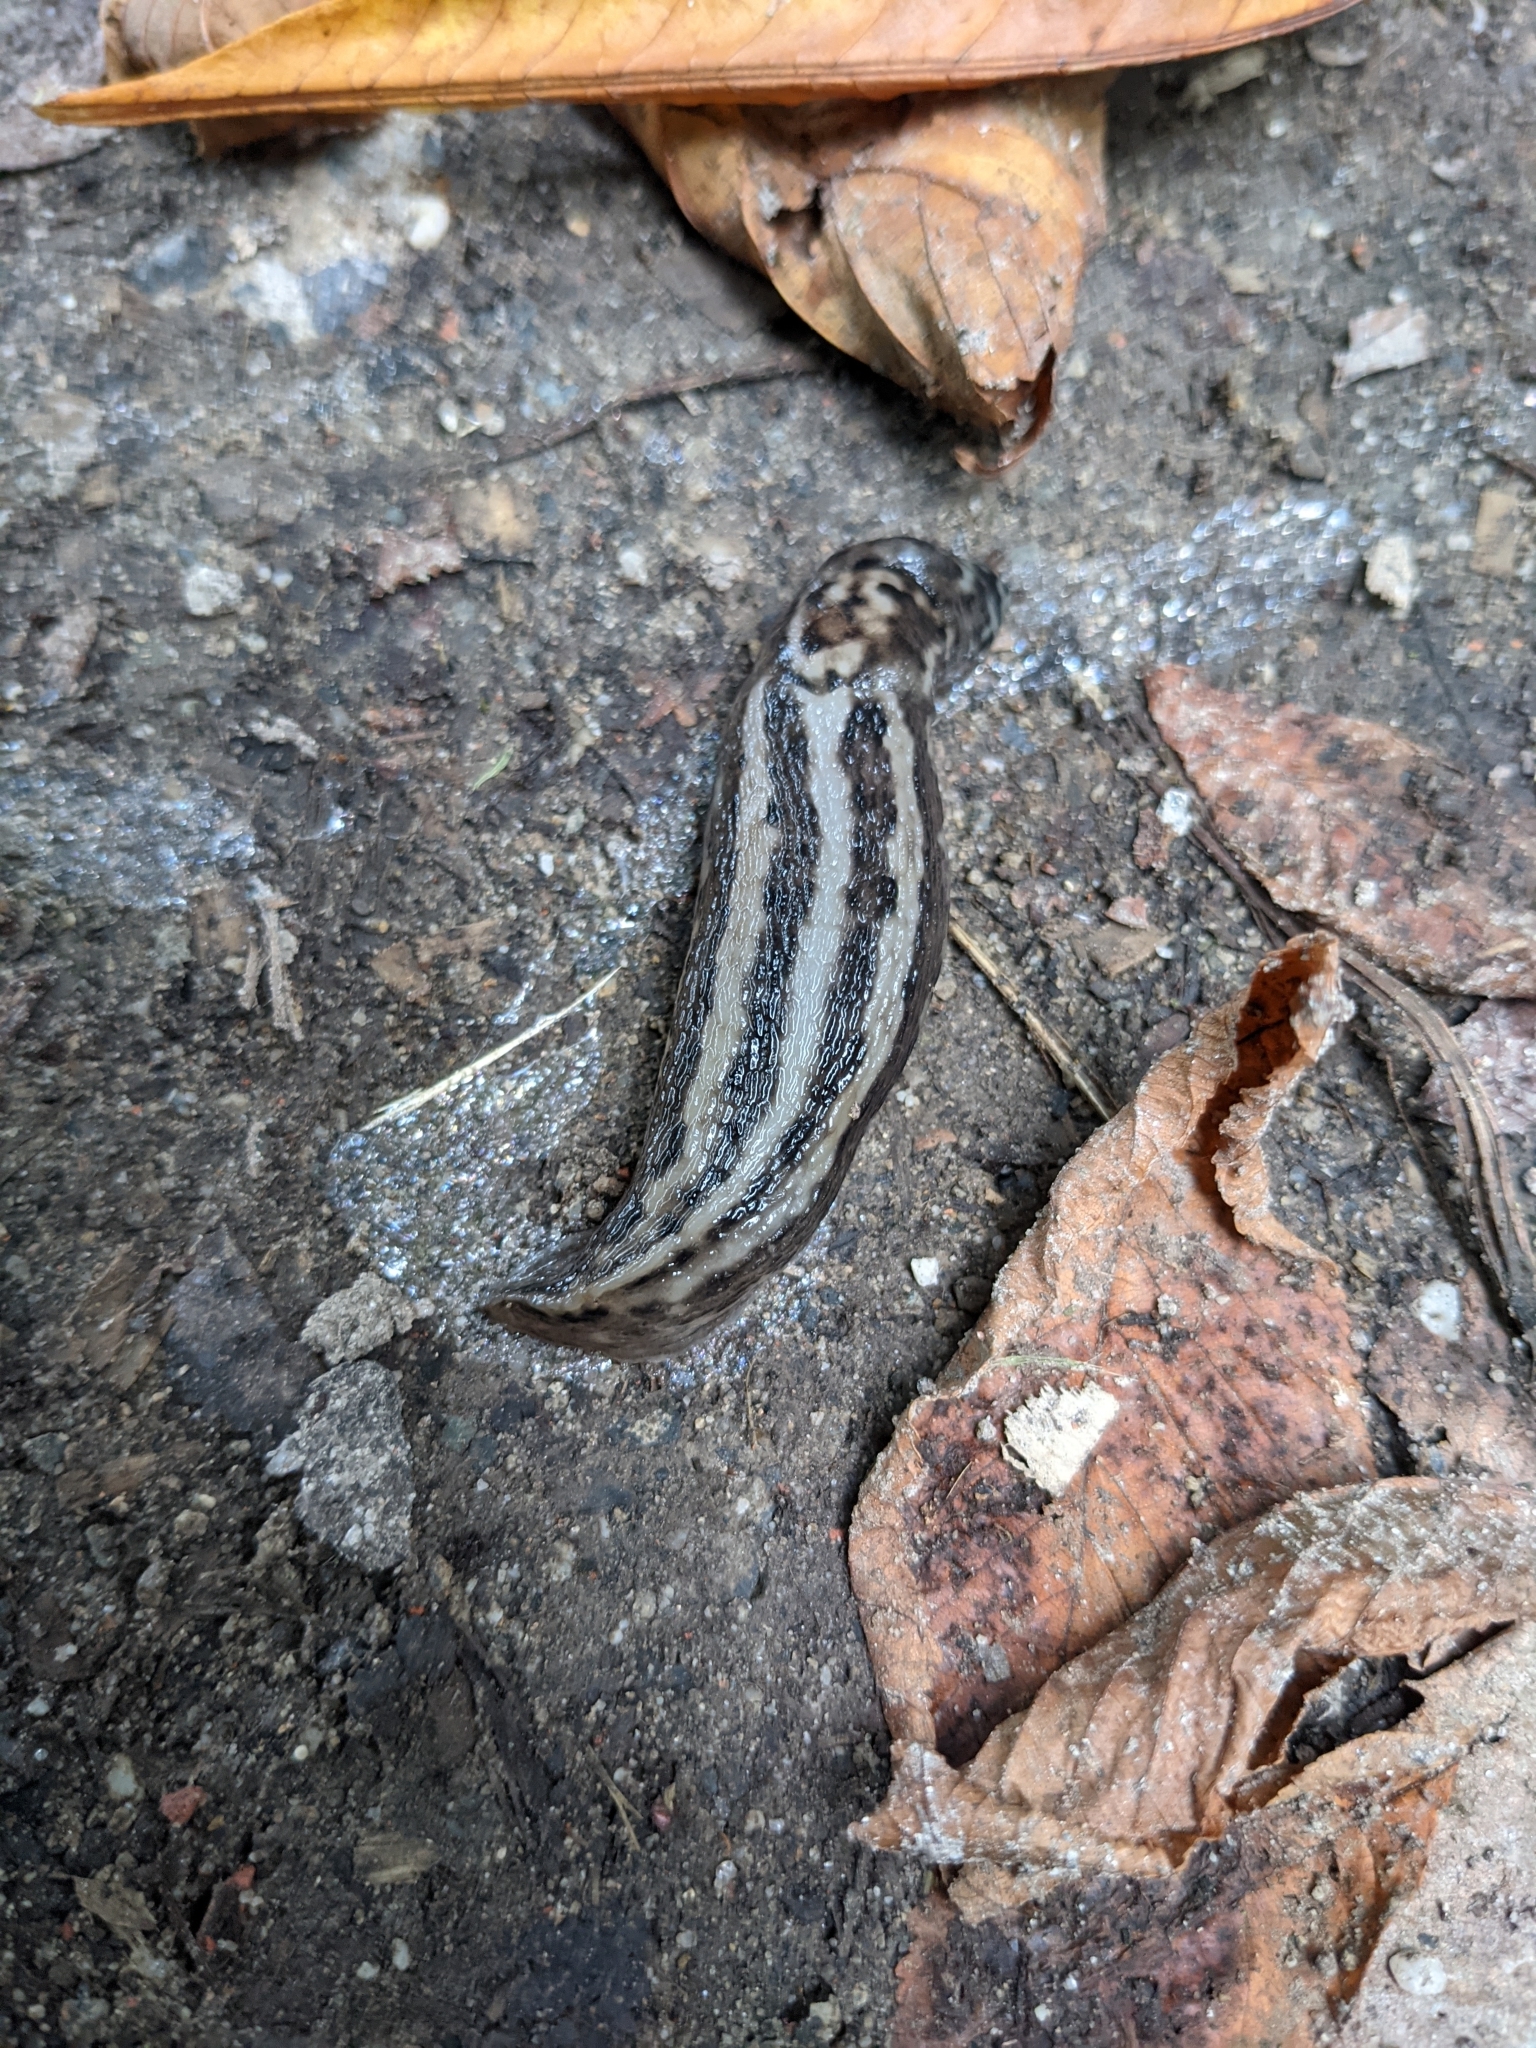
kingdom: Animalia
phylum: Mollusca
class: Gastropoda
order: Stylommatophora
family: Limacidae
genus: Limax
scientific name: Limax maximus
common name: Great grey slug
